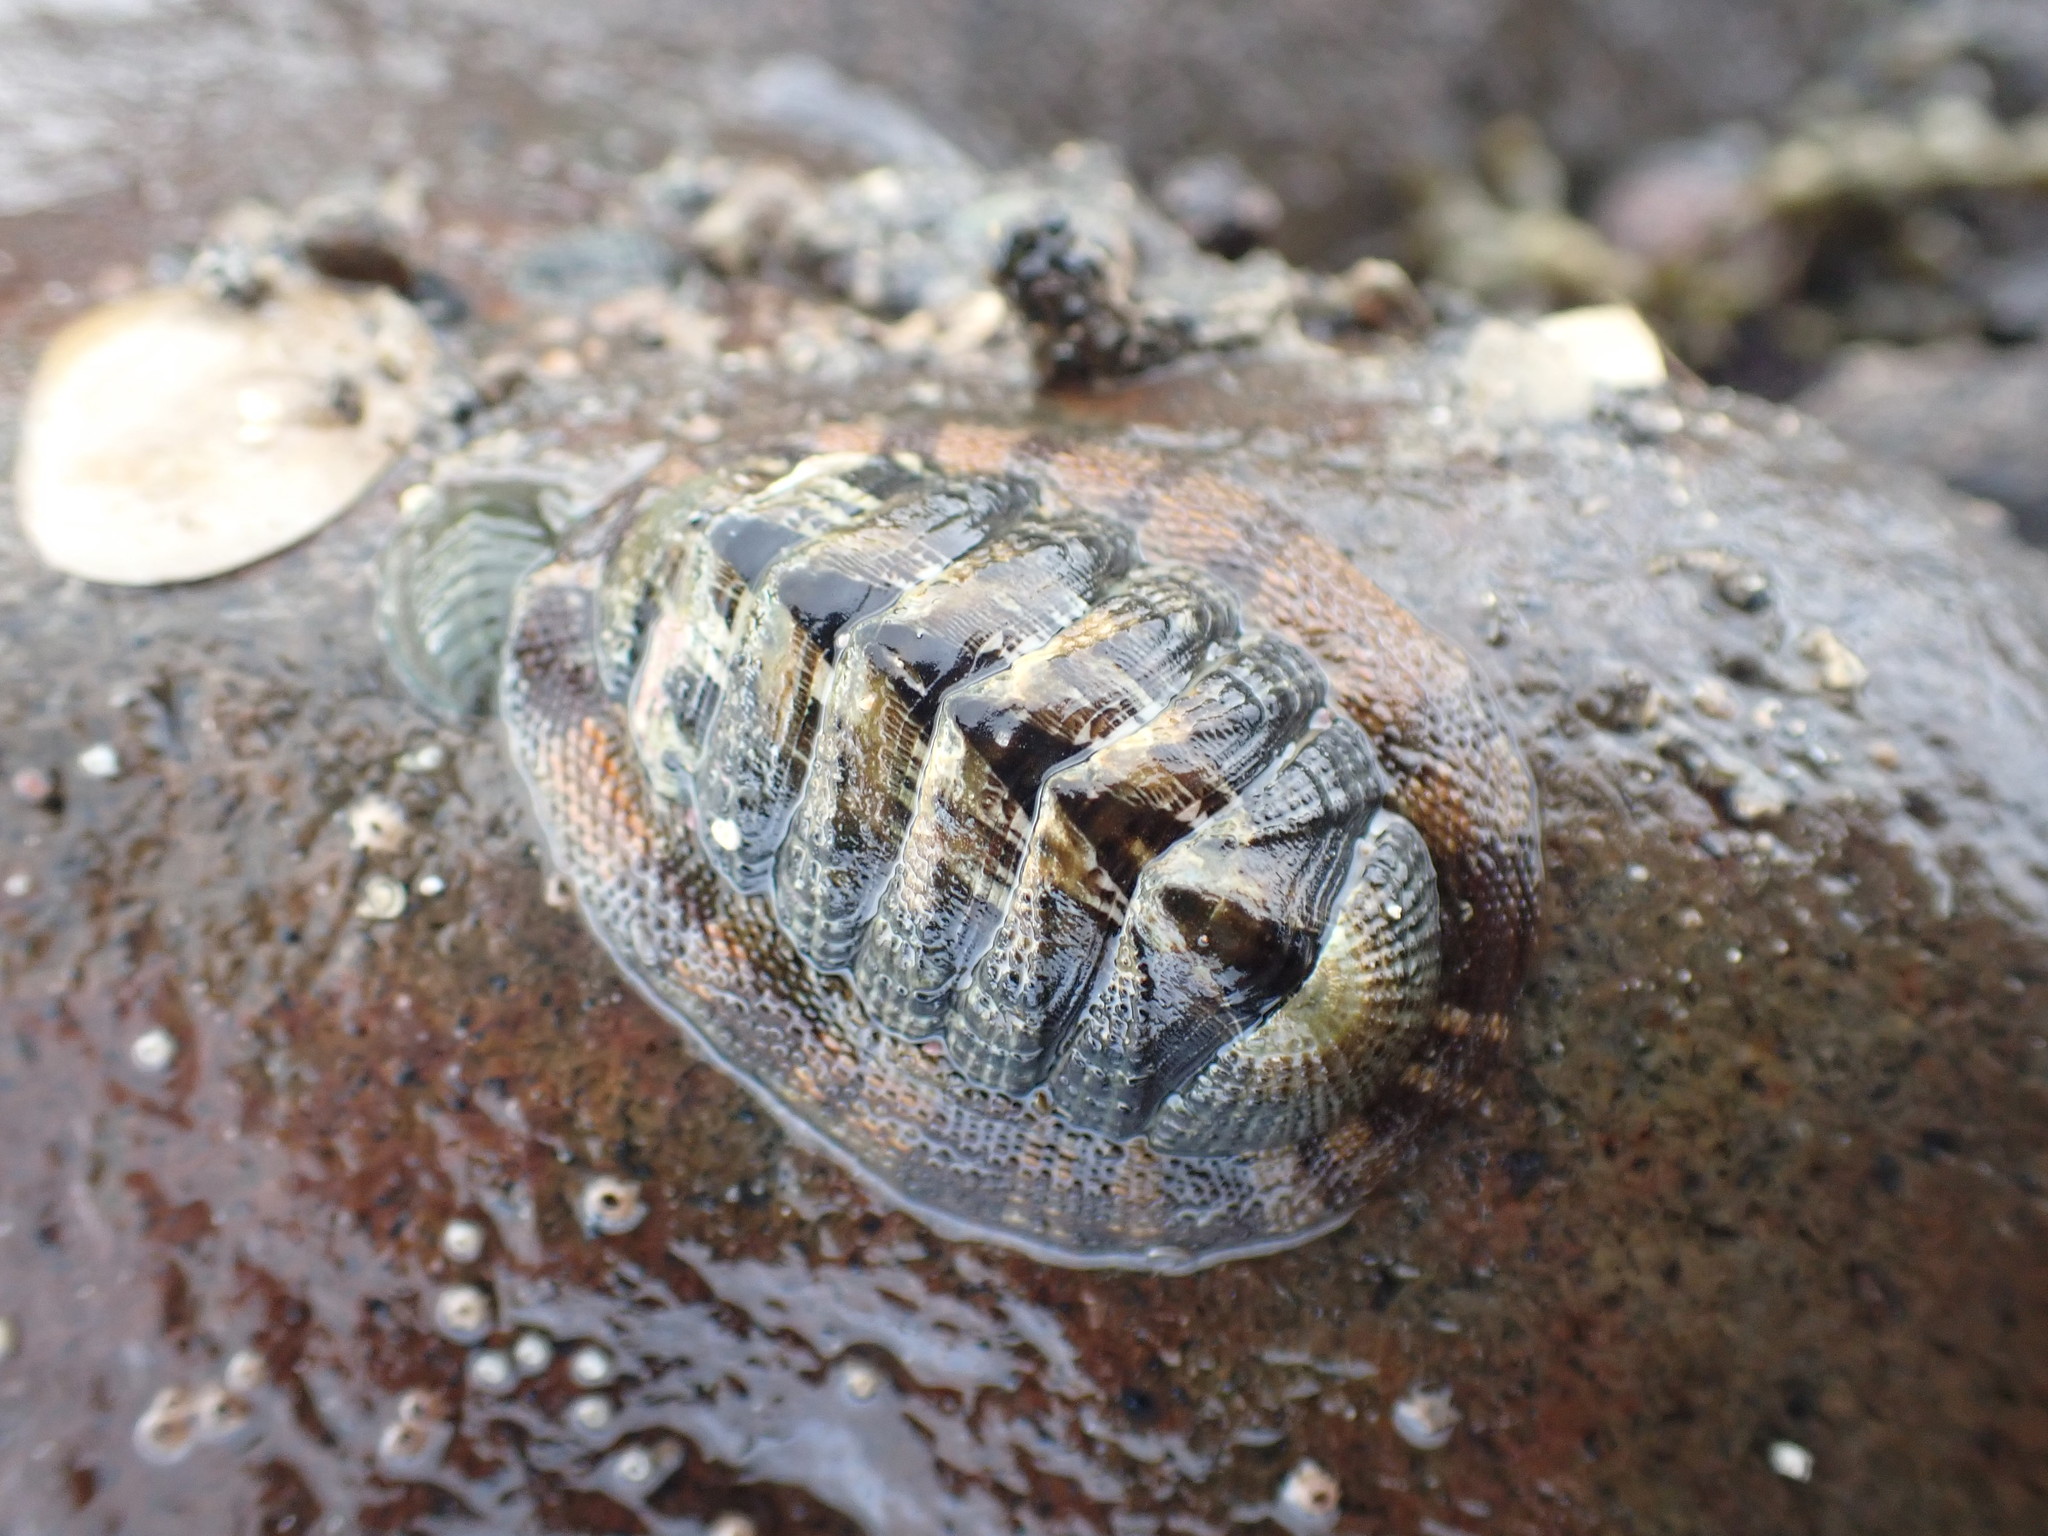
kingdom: Animalia
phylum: Mollusca
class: Polyplacophora
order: Chitonida
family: Chitonidae
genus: Sypharochiton
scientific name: Sypharochiton pelliserpentis
